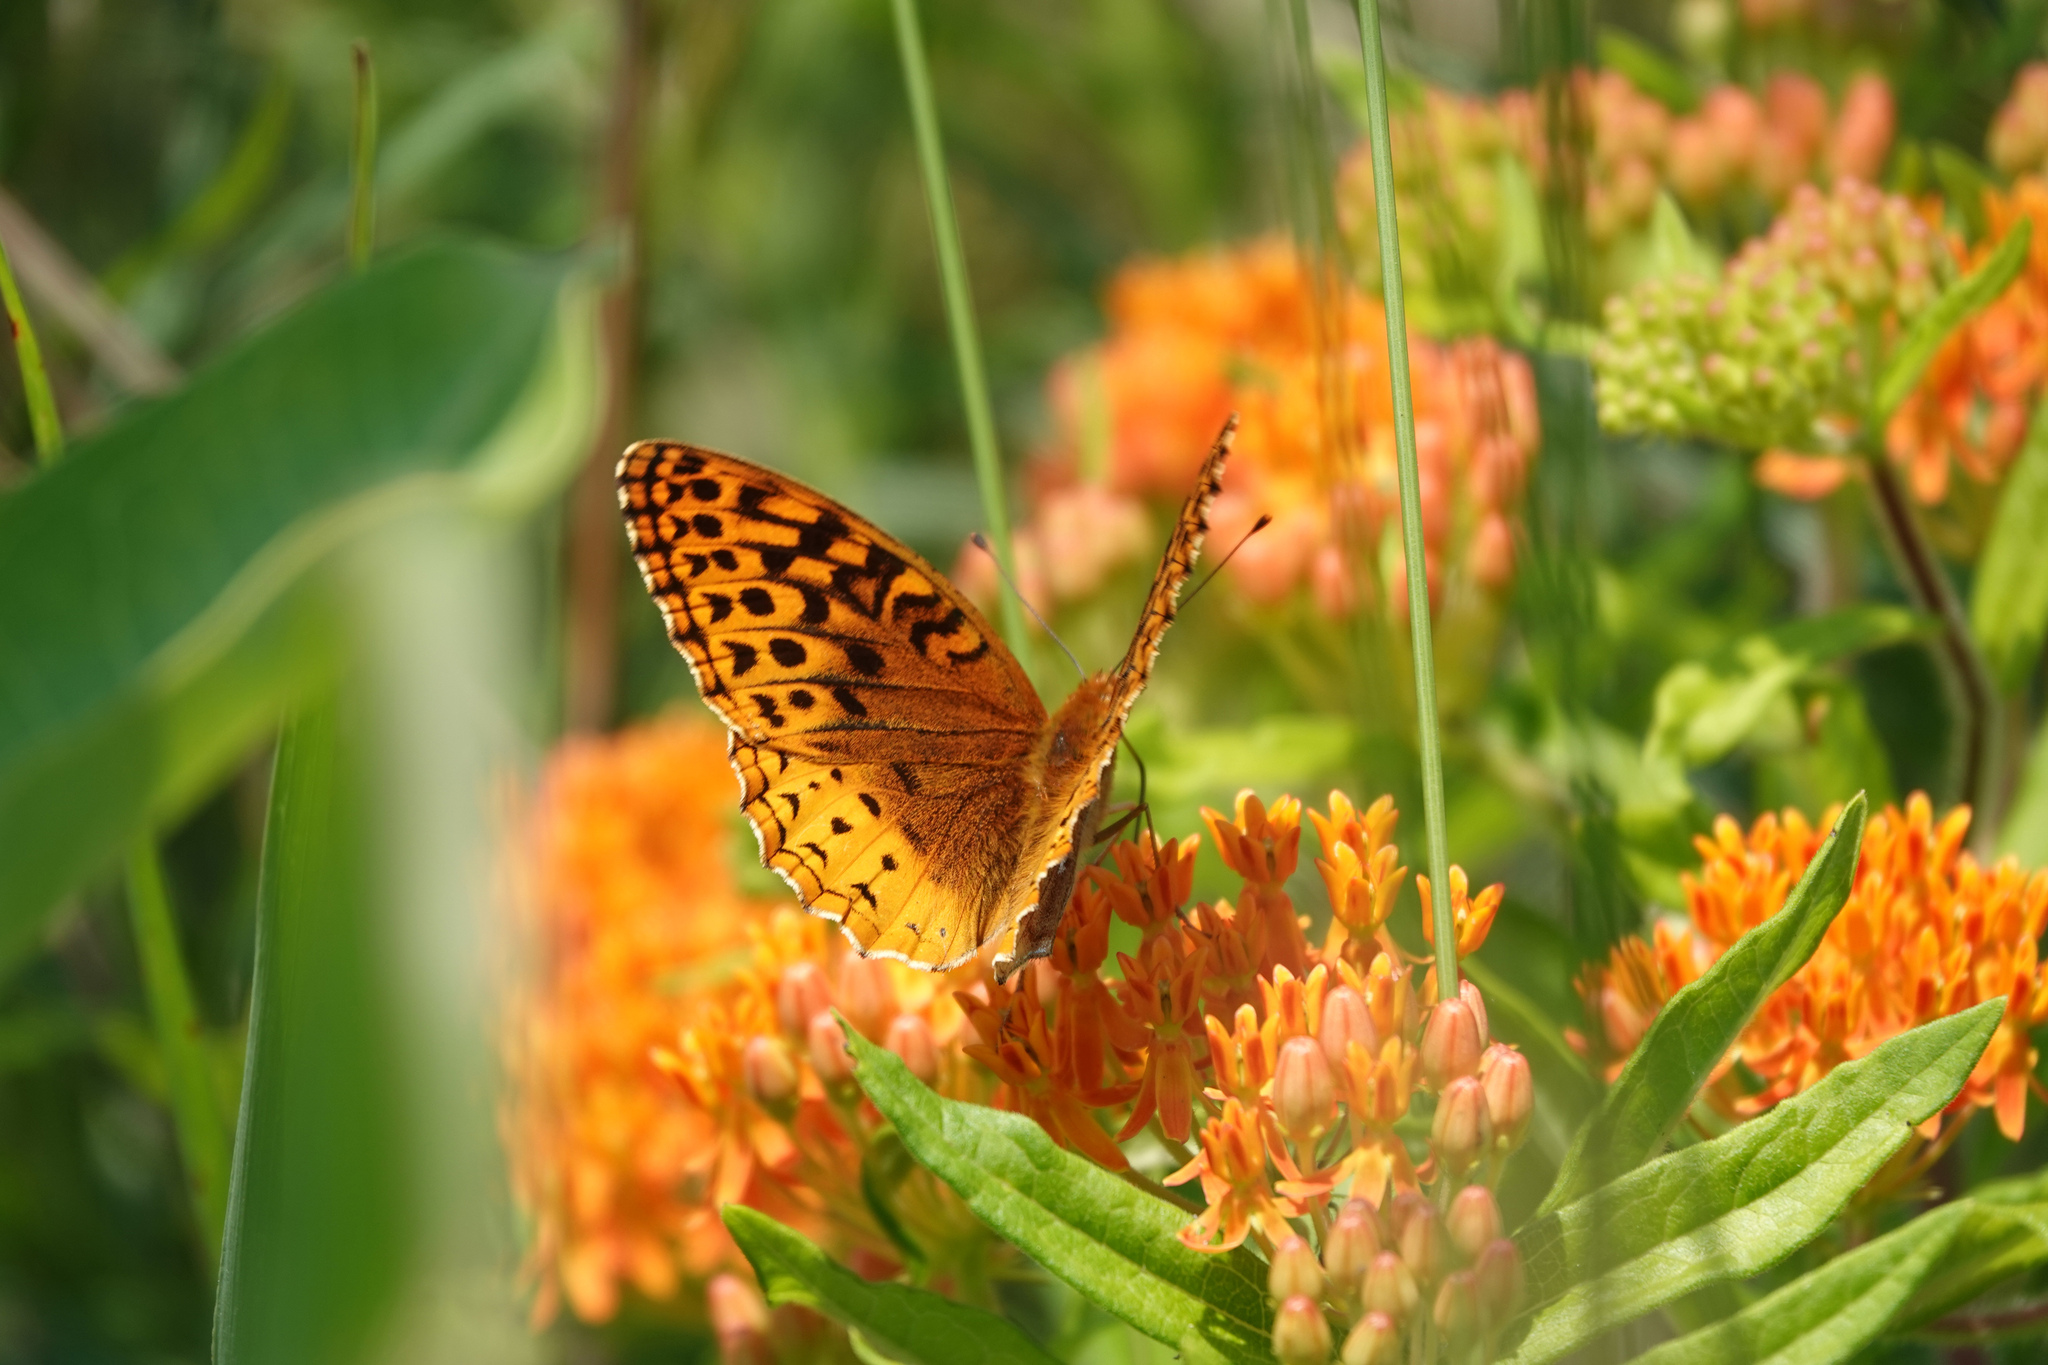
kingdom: Animalia
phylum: Arthropoda
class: Insecta
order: Lepidoptera
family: Nymphalidae
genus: Speyeria
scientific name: Speyeria cybele
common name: Great spangled fritillary
